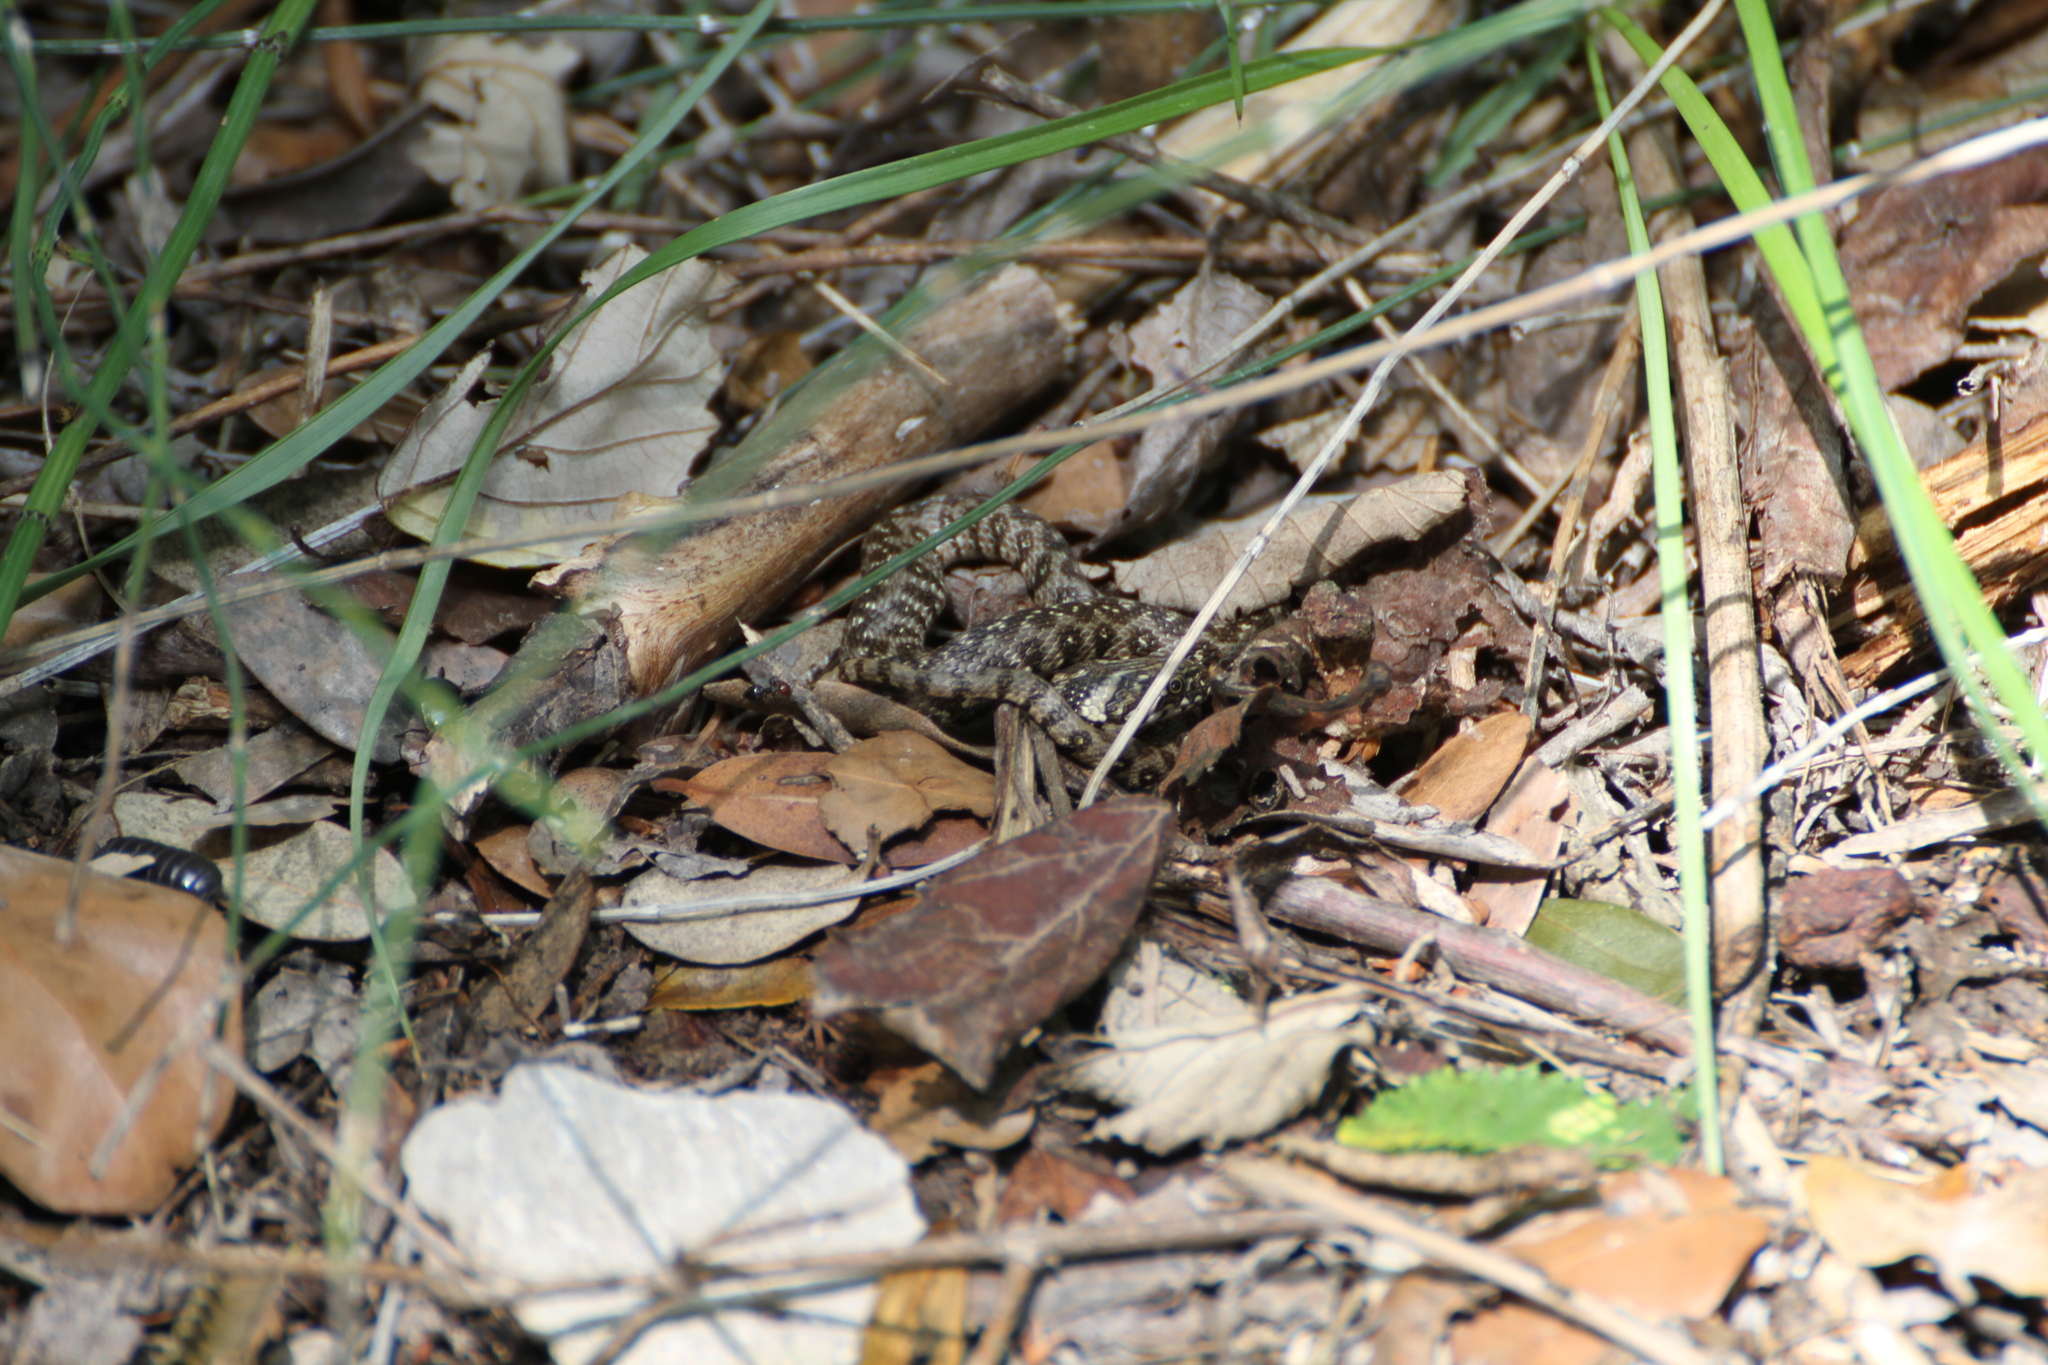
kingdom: Animalia
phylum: Chordata
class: Squamata
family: Colubridae
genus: Natrix
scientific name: Natrix maura
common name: Viperine water snake
